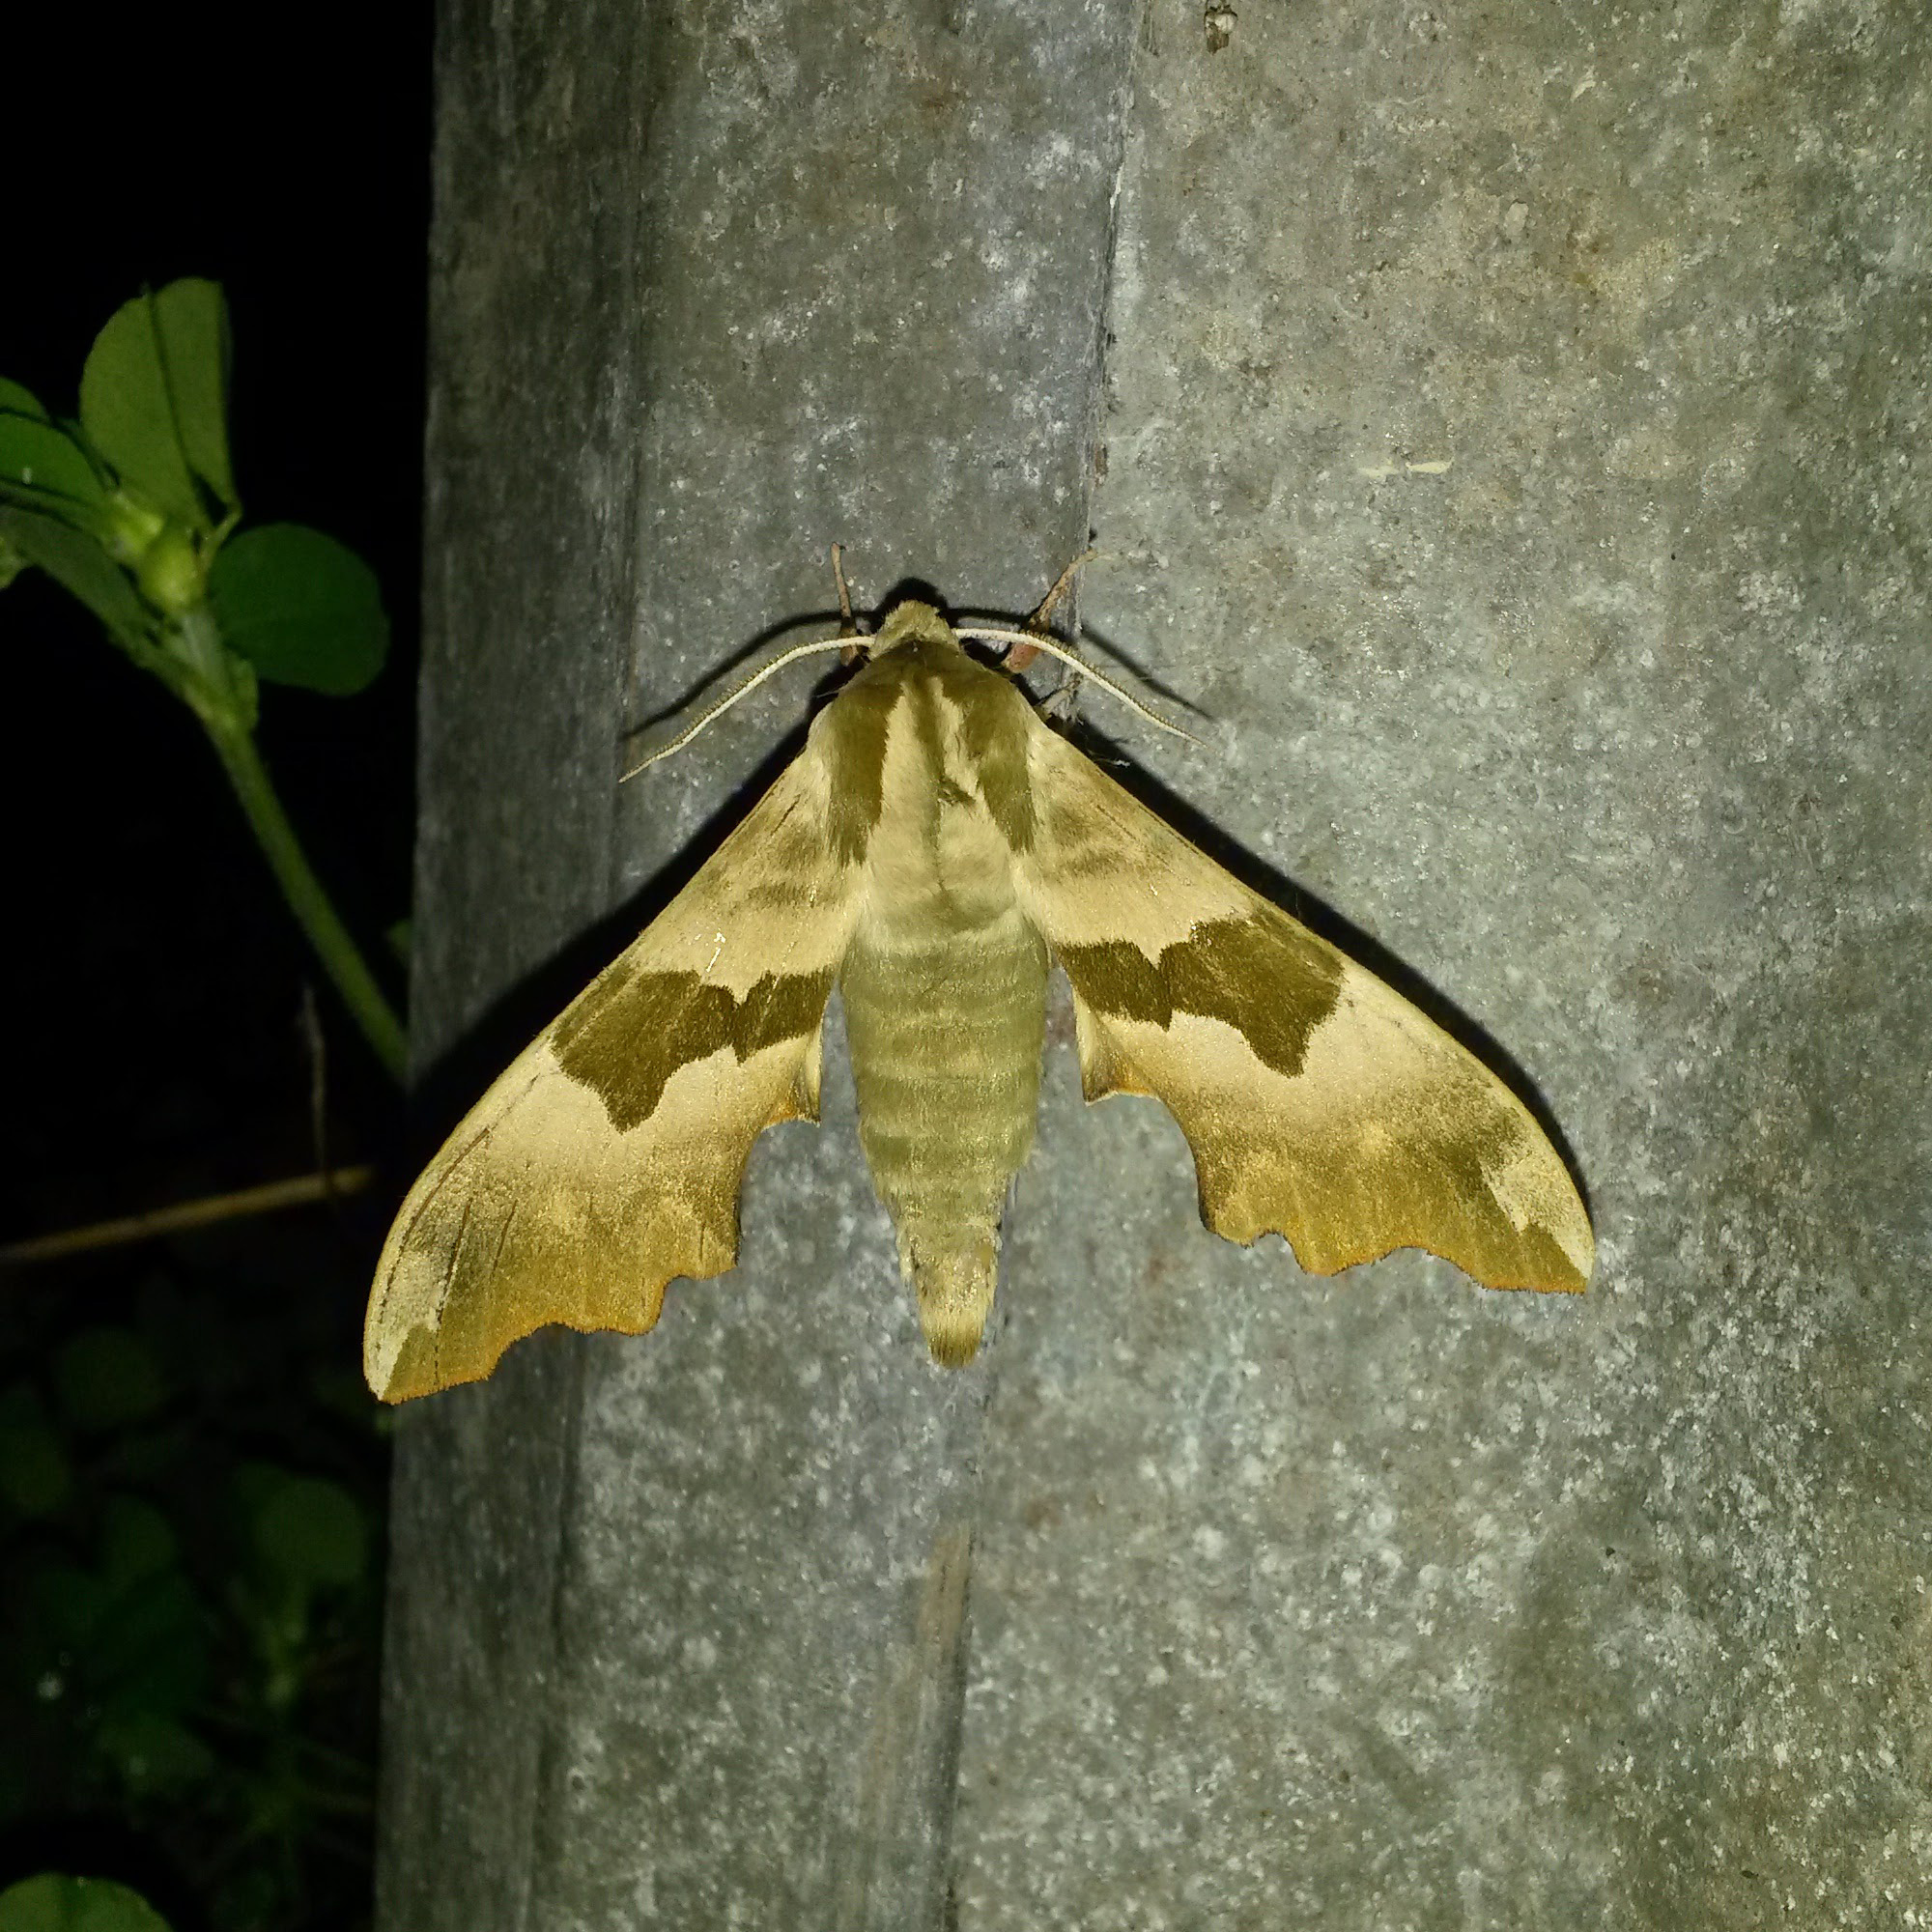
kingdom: Animalia
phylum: Arthropoda
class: Insecta
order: Lepidoptera
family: Sphingidae
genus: Mimas
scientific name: Mimas tiliae
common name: Lime hawk-moth
